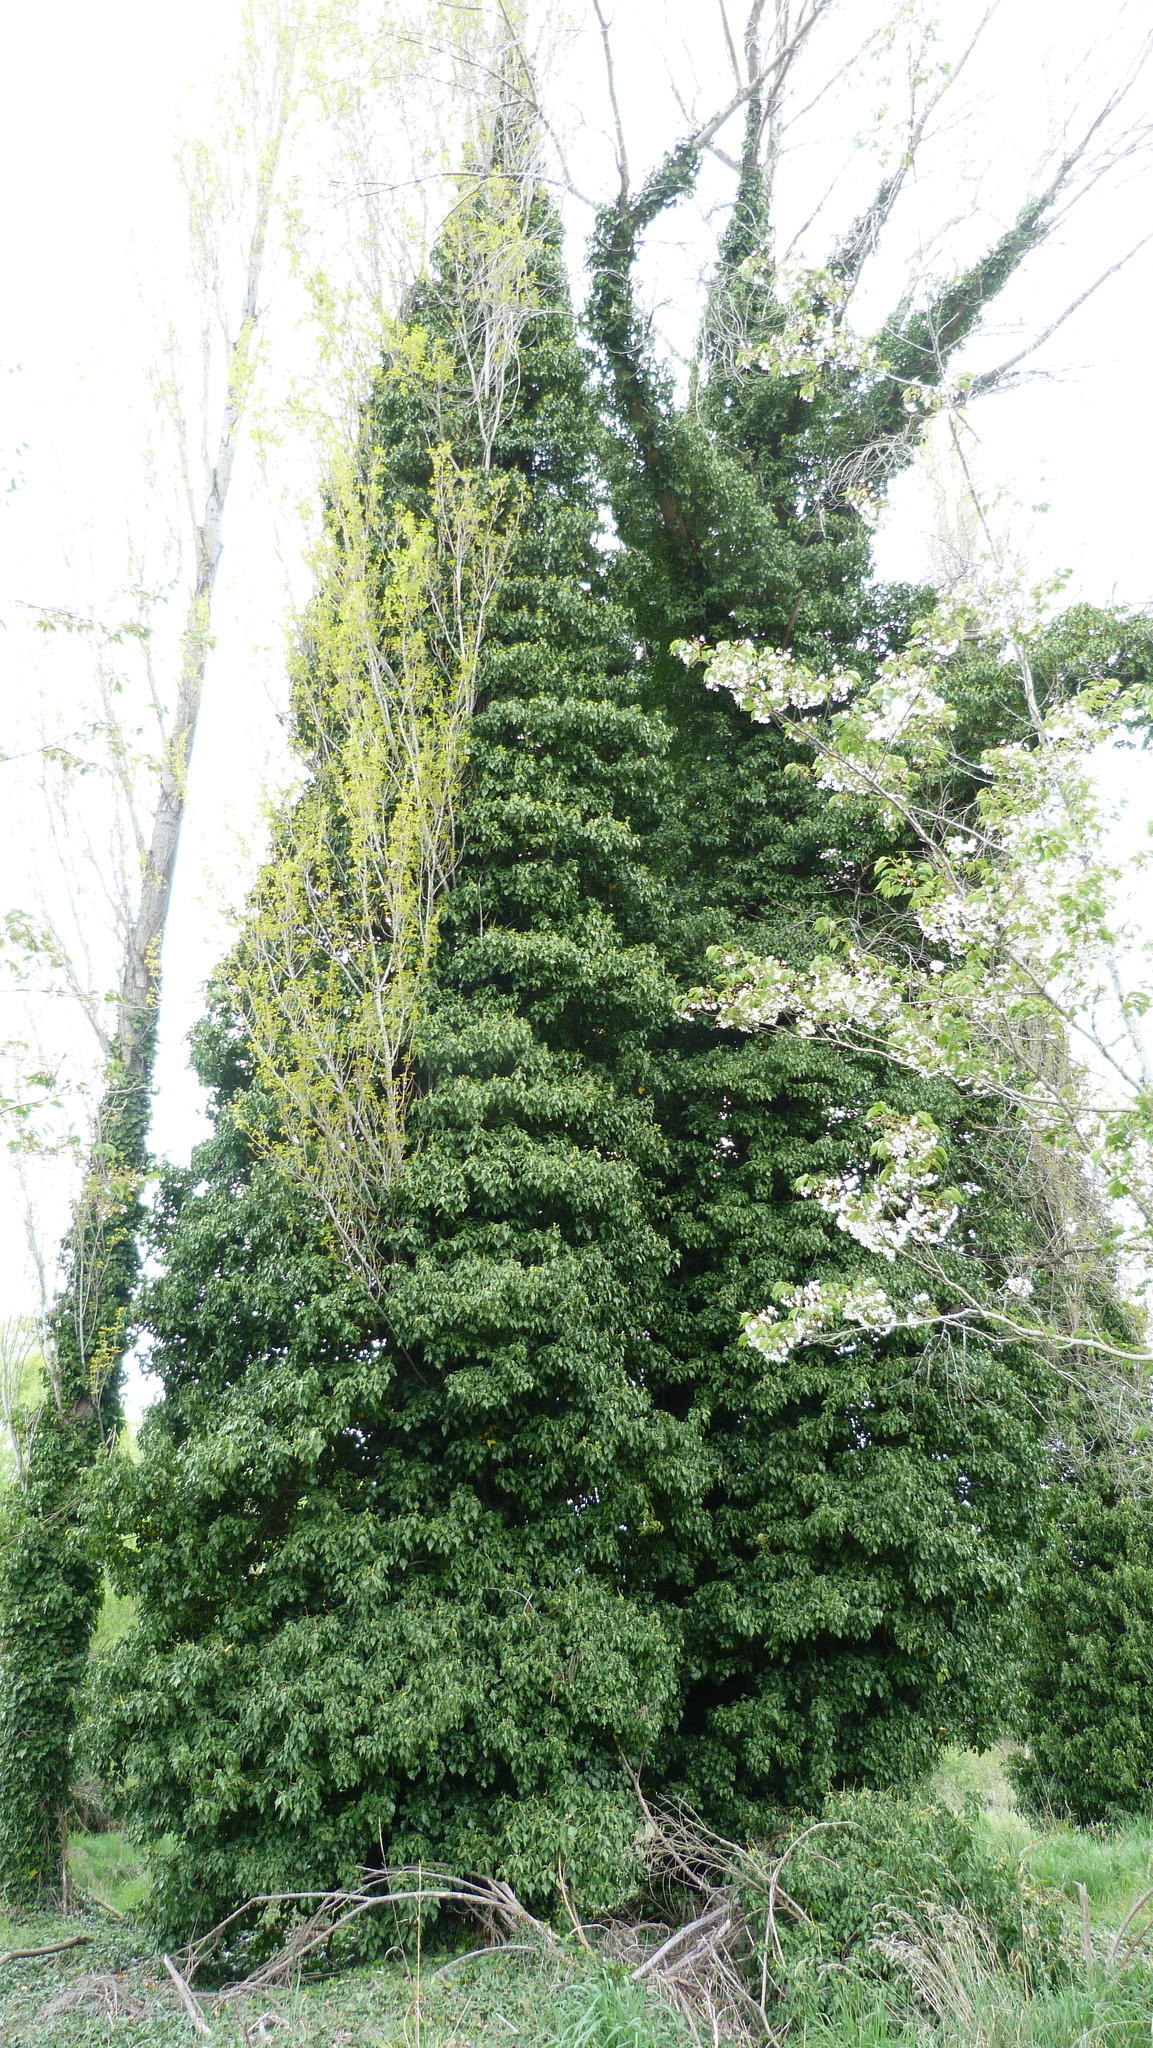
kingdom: Plantae
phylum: Tracheophyta
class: Magnoliopsida
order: Apiales
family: Araliaceae
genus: Hedera
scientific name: Hedera helix
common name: Ivy
